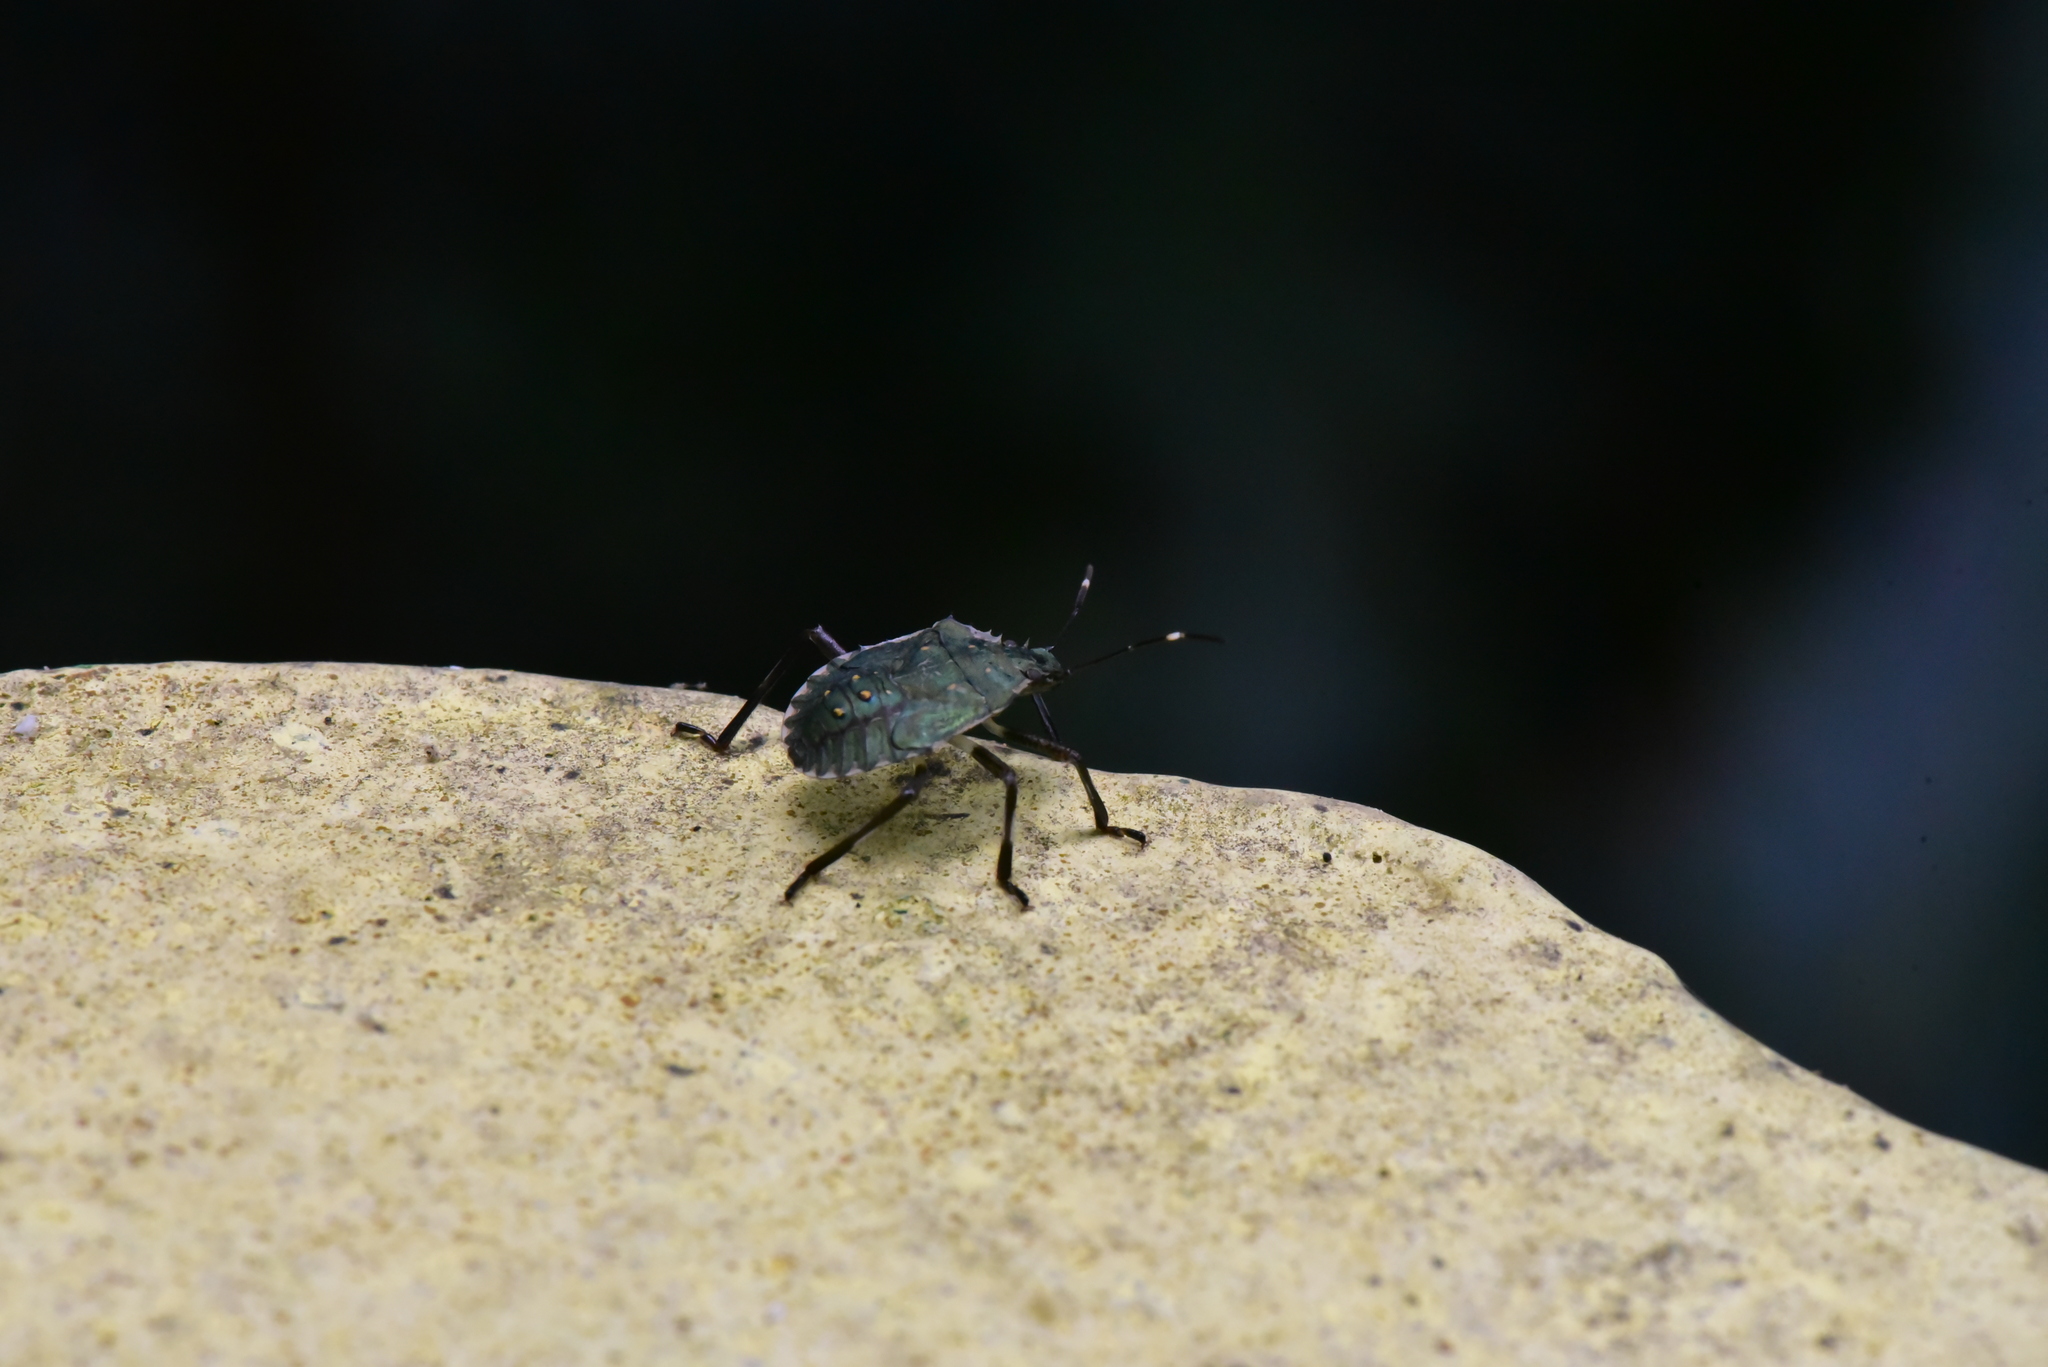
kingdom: Animalia
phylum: Arthropoda
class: Insecta
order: Hemiptera
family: Pentatomidae
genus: Halyomorpha
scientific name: Halyomorpha halys
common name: Brown marmorated stink bug
